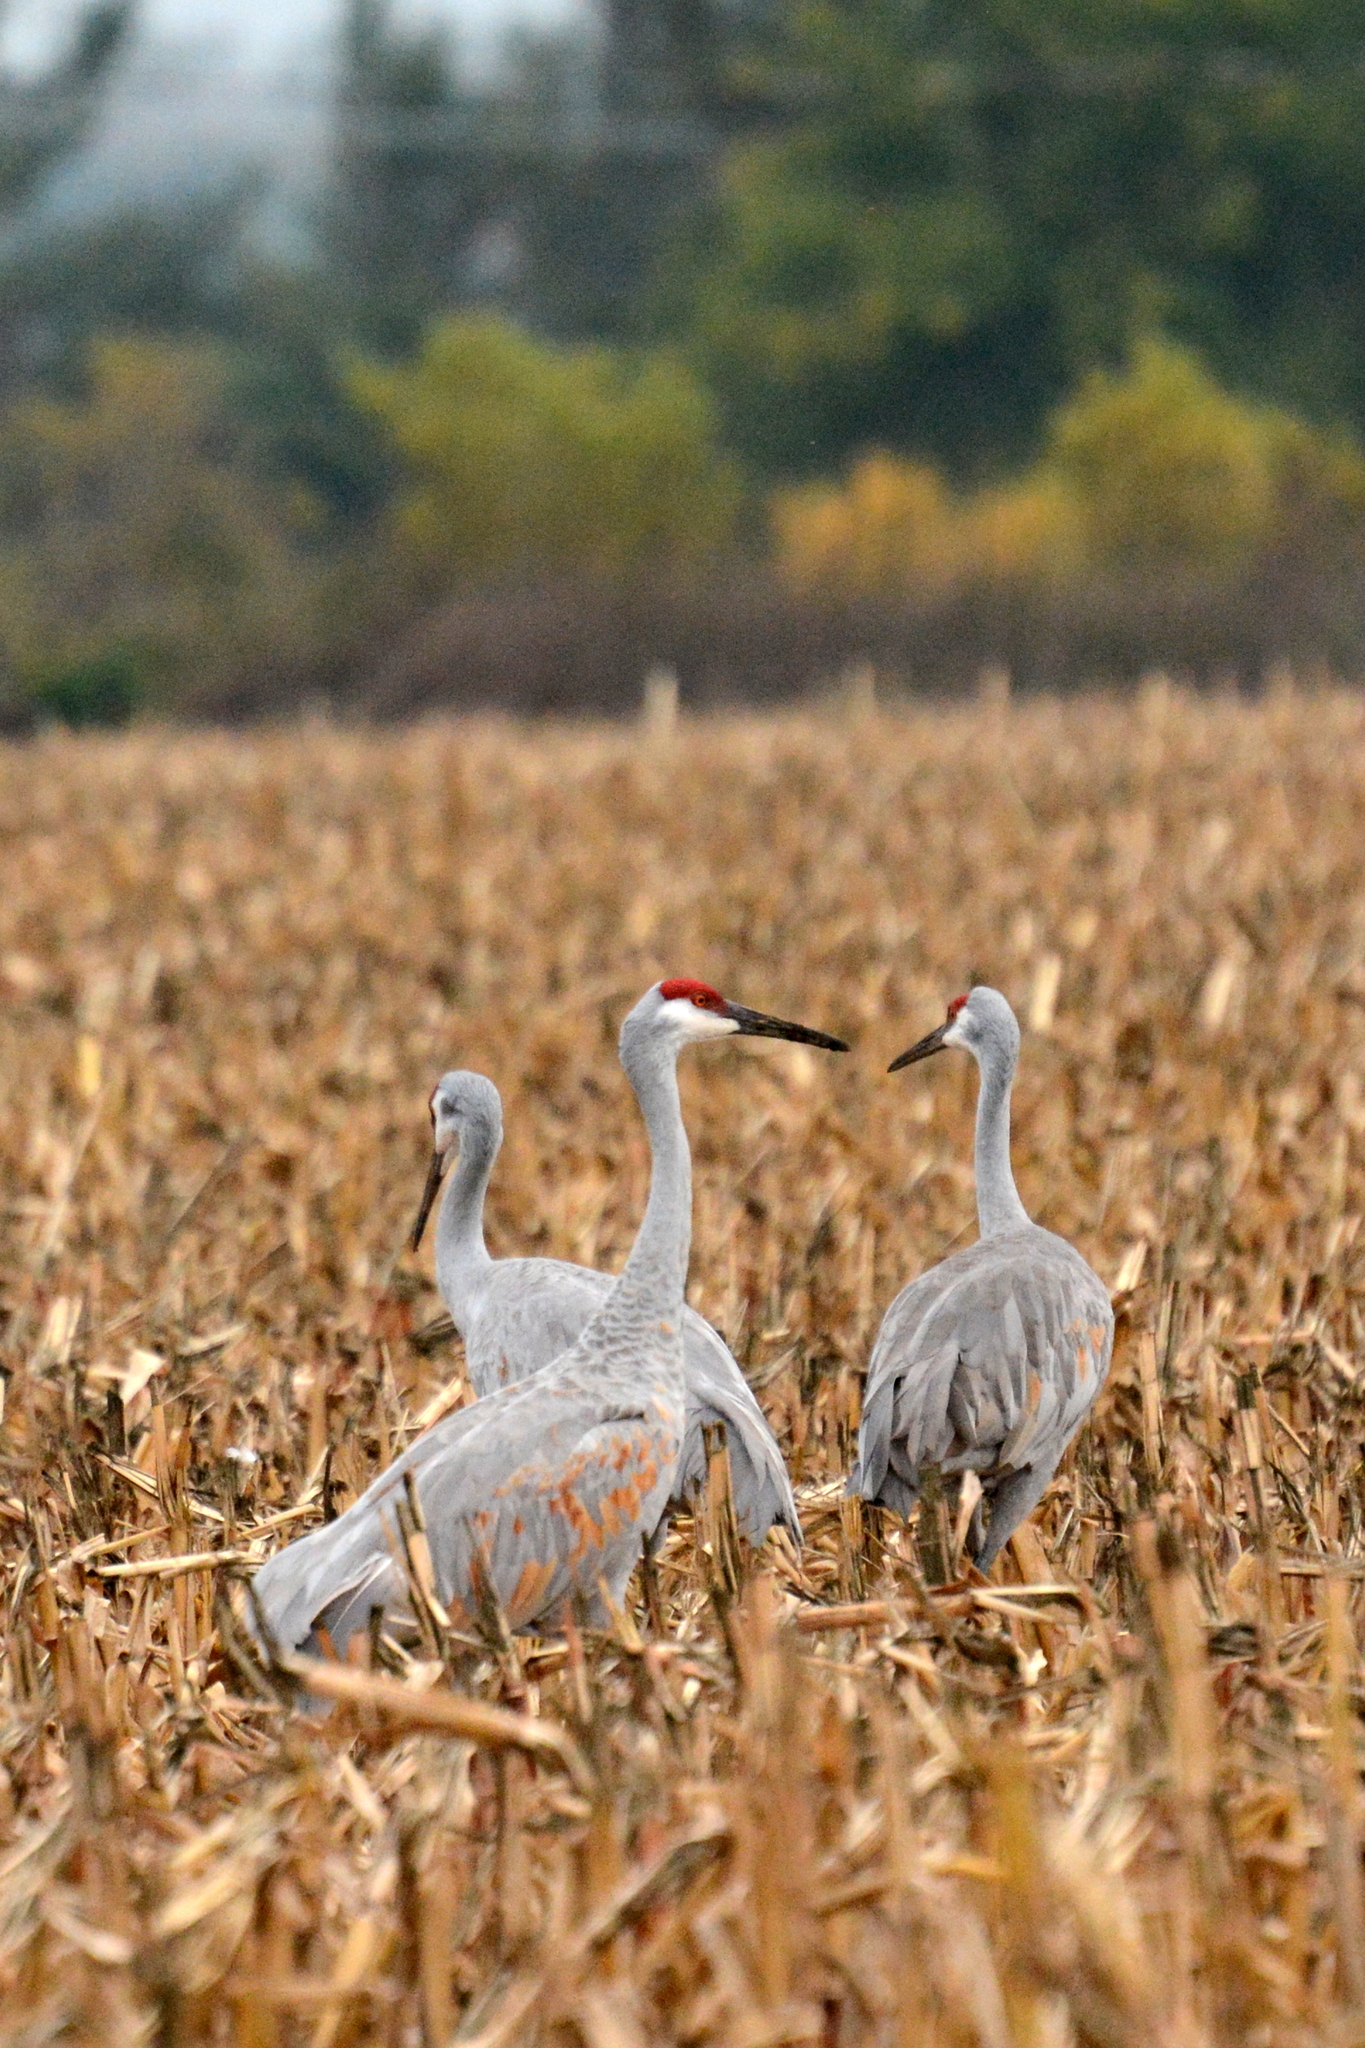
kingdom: Animalia
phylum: Chordata
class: Aves
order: Gruiformes
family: Gruidae
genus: Grus
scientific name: Grus canadensis
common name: Sandhill crane
